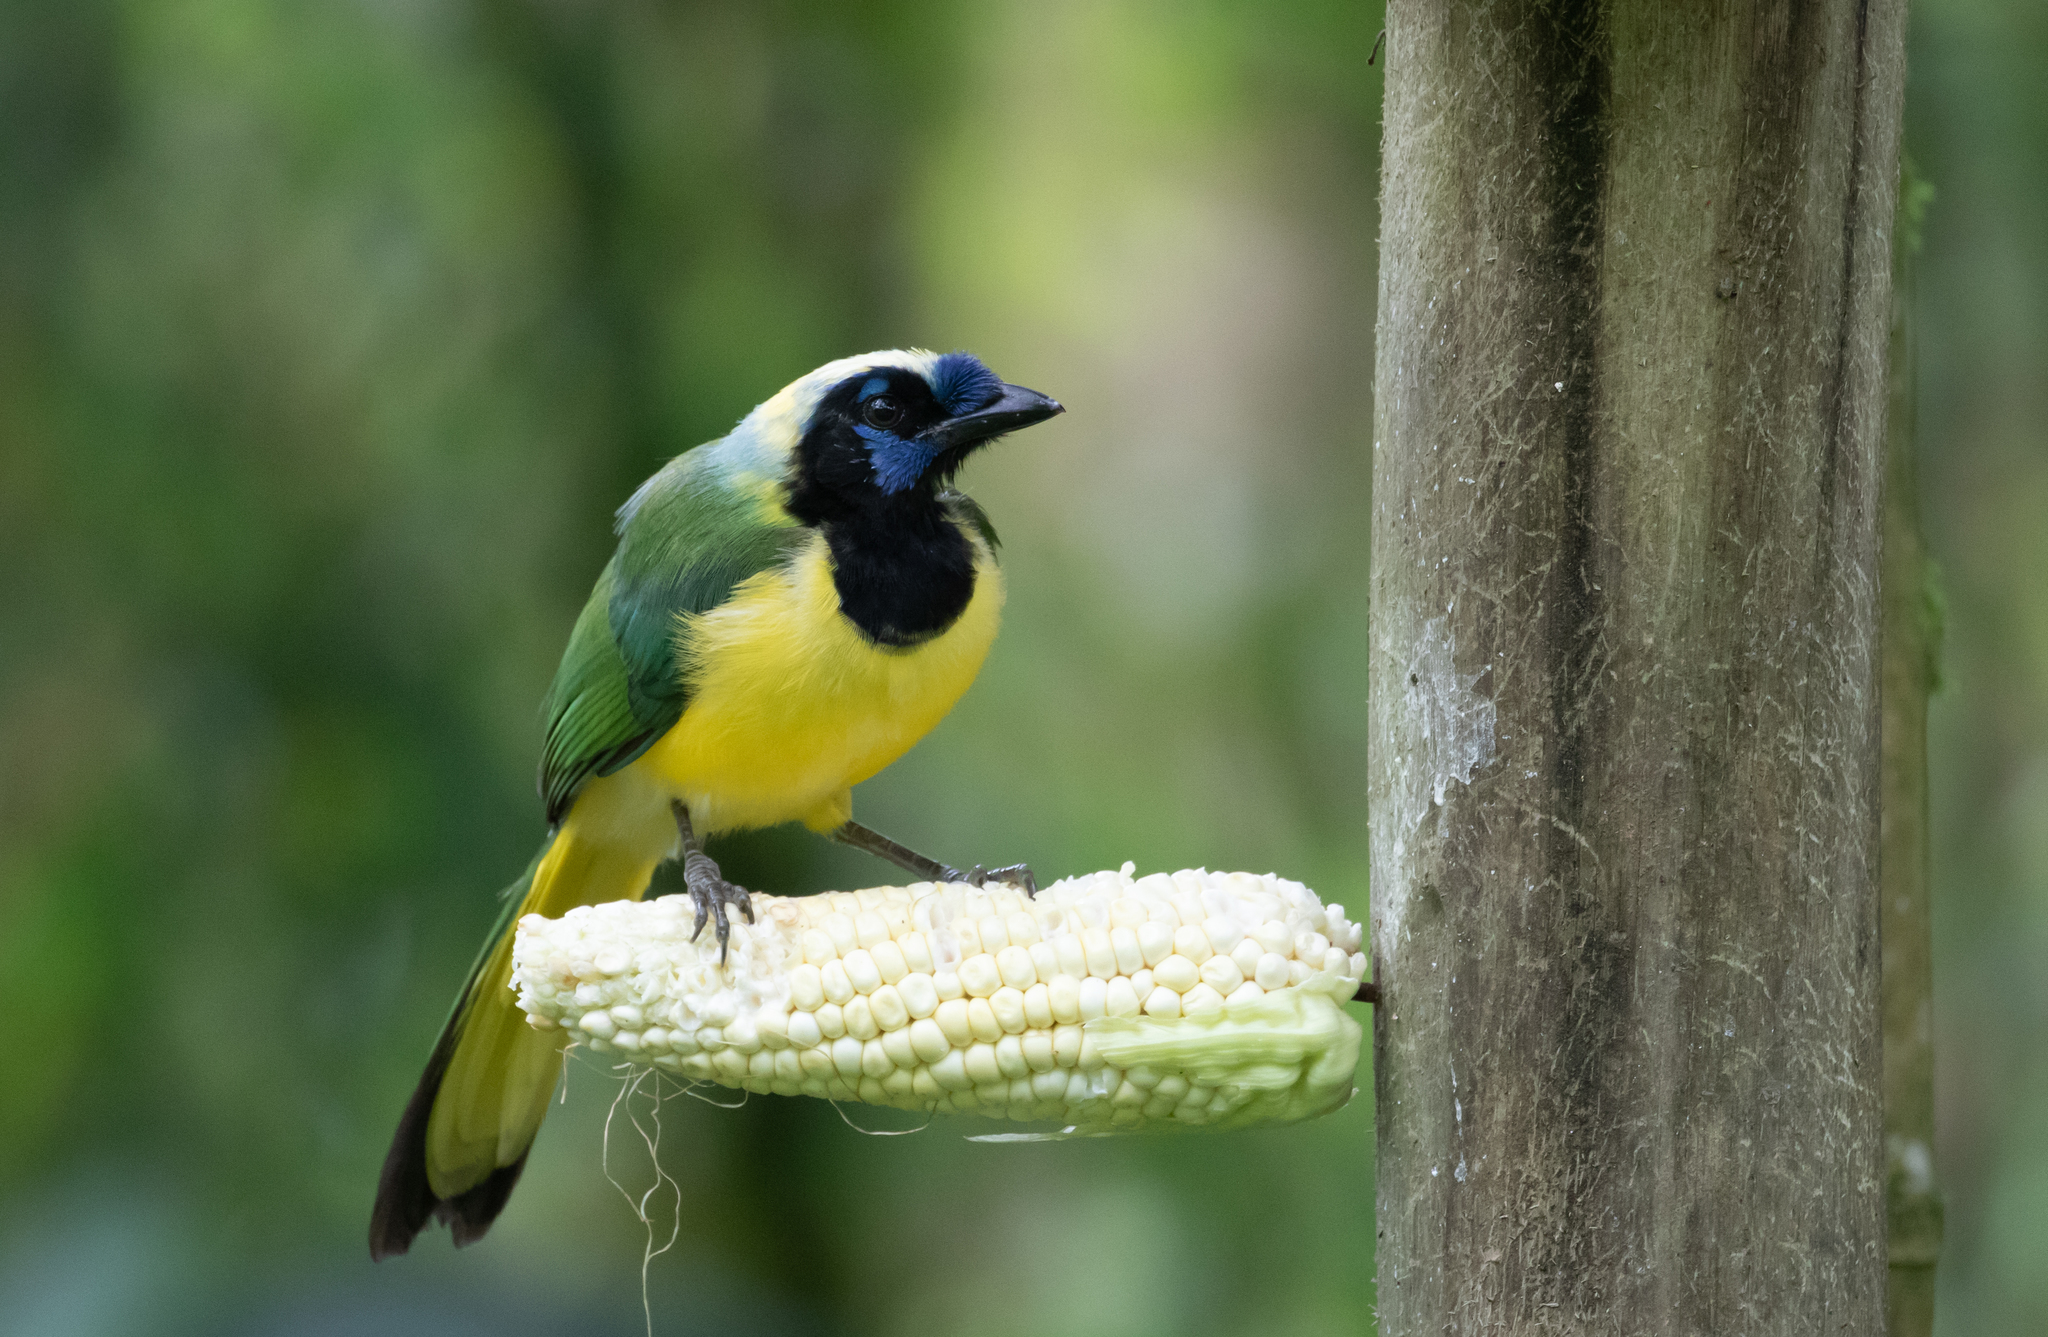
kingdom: Animalia
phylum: Chordata
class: Aves
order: Passeriformes
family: Corvidae
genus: Cyanocorax
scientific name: Cyanocorax yncas
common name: Green jay
